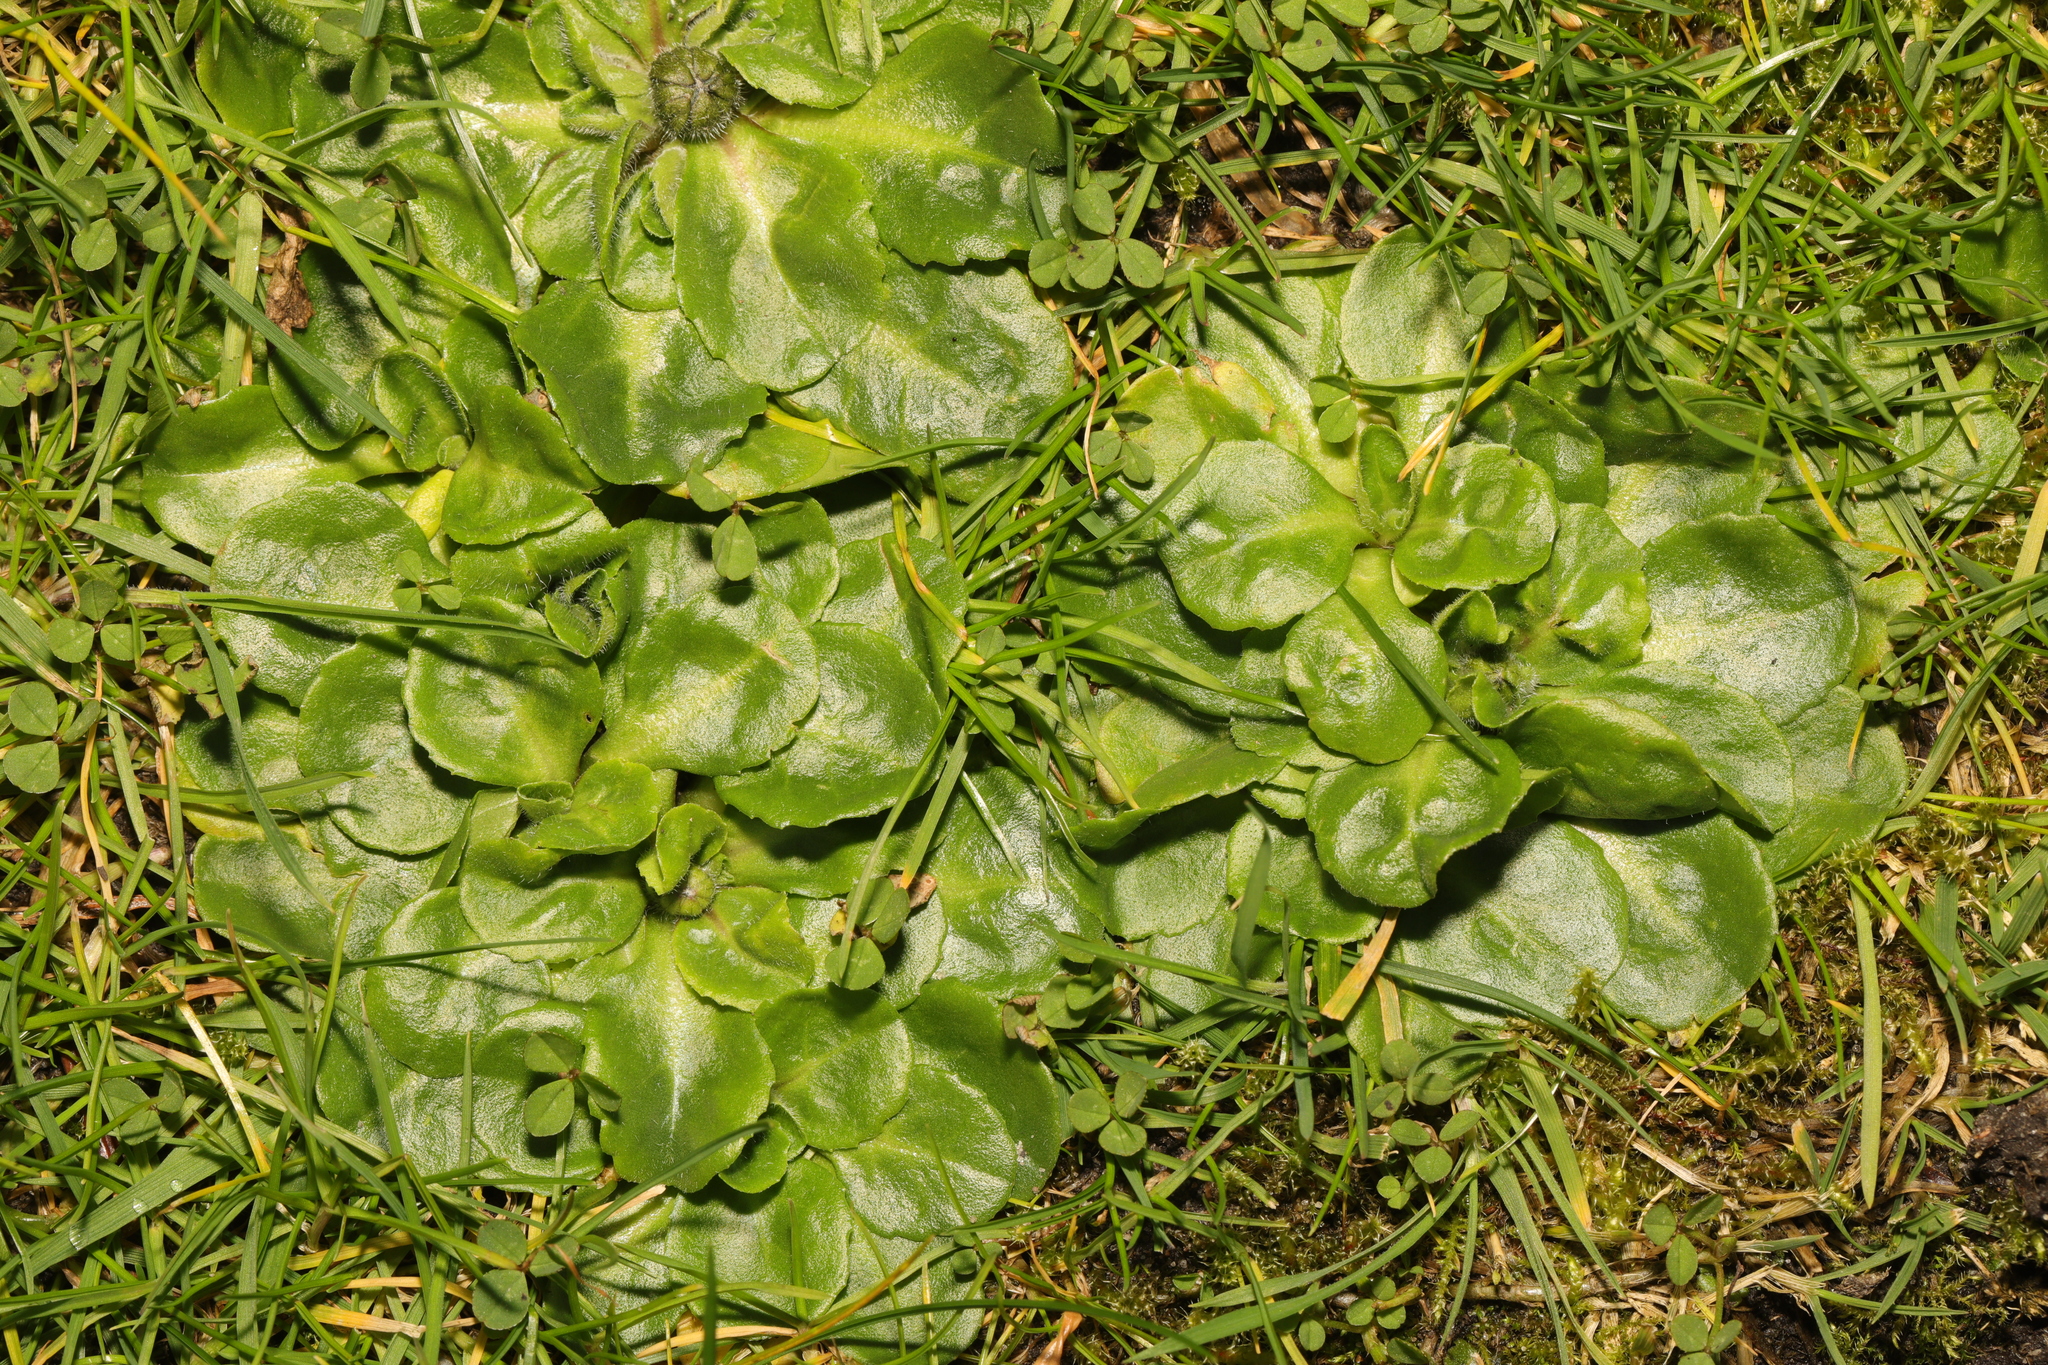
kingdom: Plantae
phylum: Tracheophyta
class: Magnoliopsida
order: Asterales
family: Asteraceae
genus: Bellis
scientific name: Bellis perennis
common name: Lawndaisy
